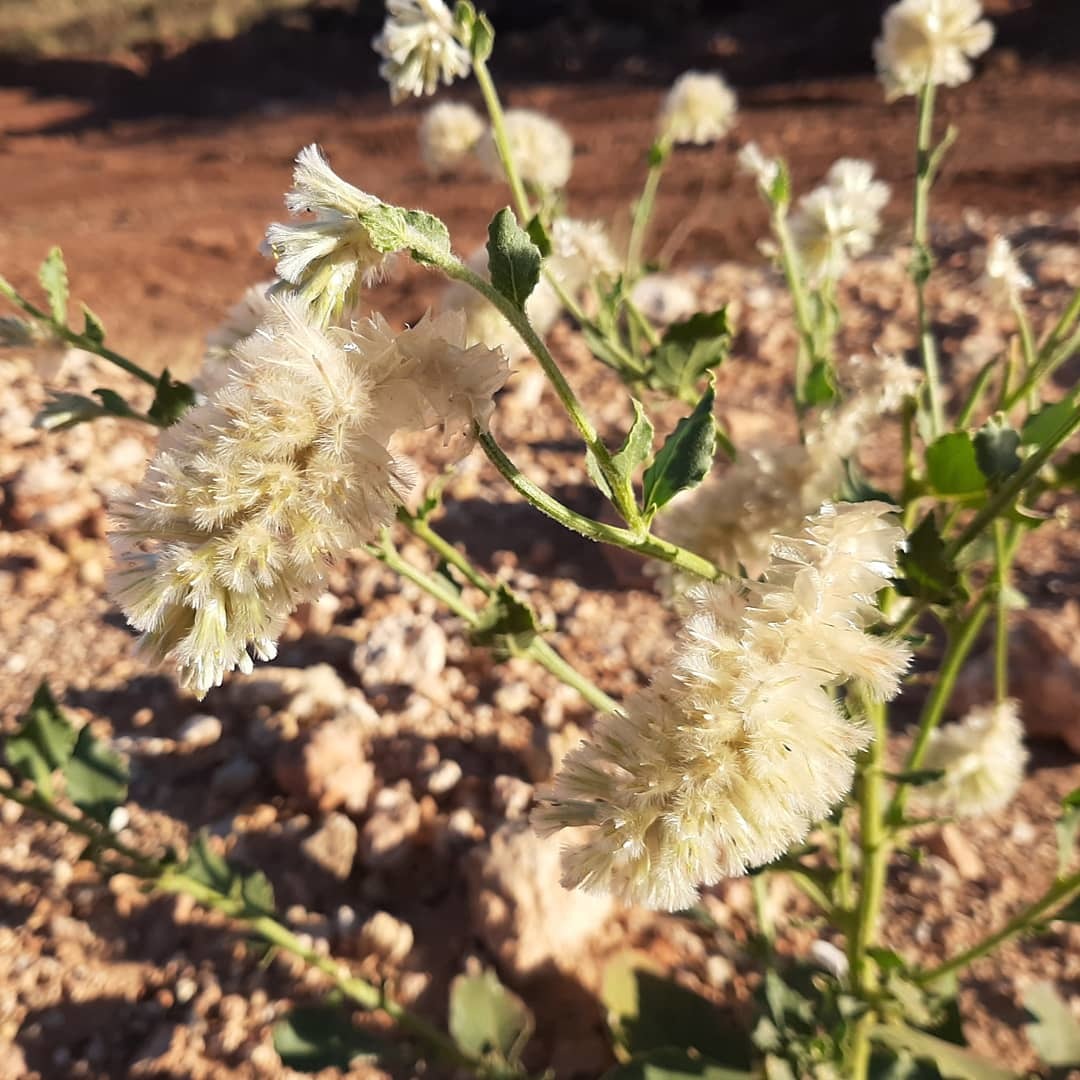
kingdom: Plantae
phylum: Tracheophyta
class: Magnoliopsida
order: Caryophyllales
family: Amaranthaceae
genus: Ptilotus
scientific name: Ptilotus auriculifolius
